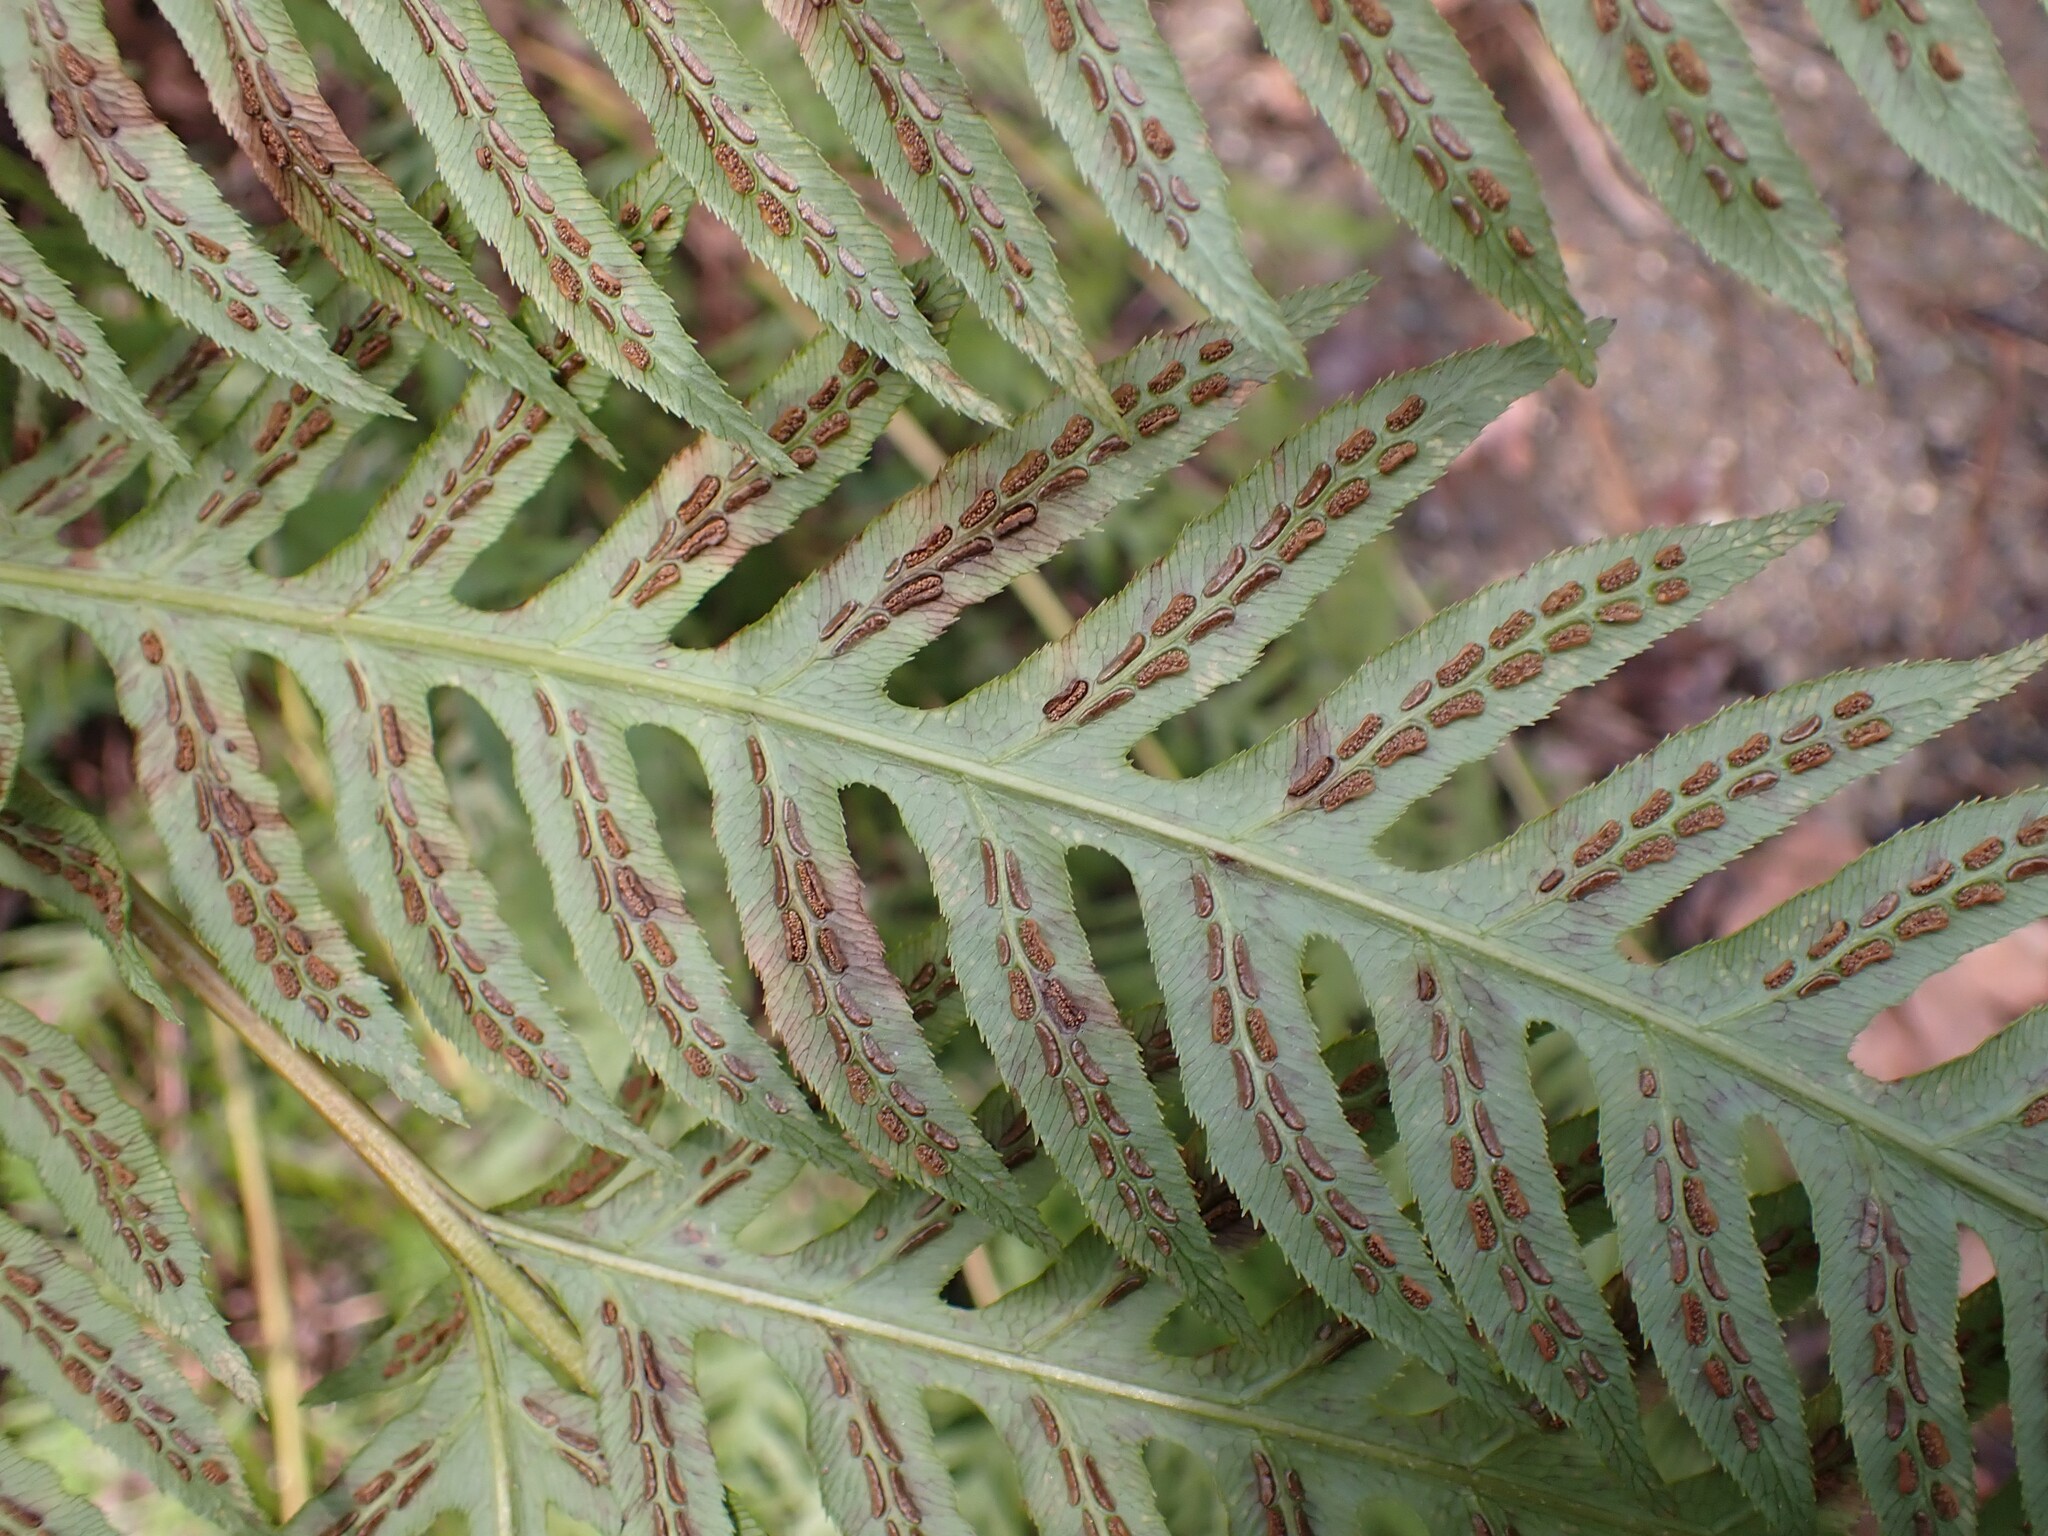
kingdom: Plantae
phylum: Tracheophyta
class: Polypodiopsida
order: Polypodiales
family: Blechnaceae
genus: Woodwardia
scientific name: Woodwardia fimbriata
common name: Giant chain fern
